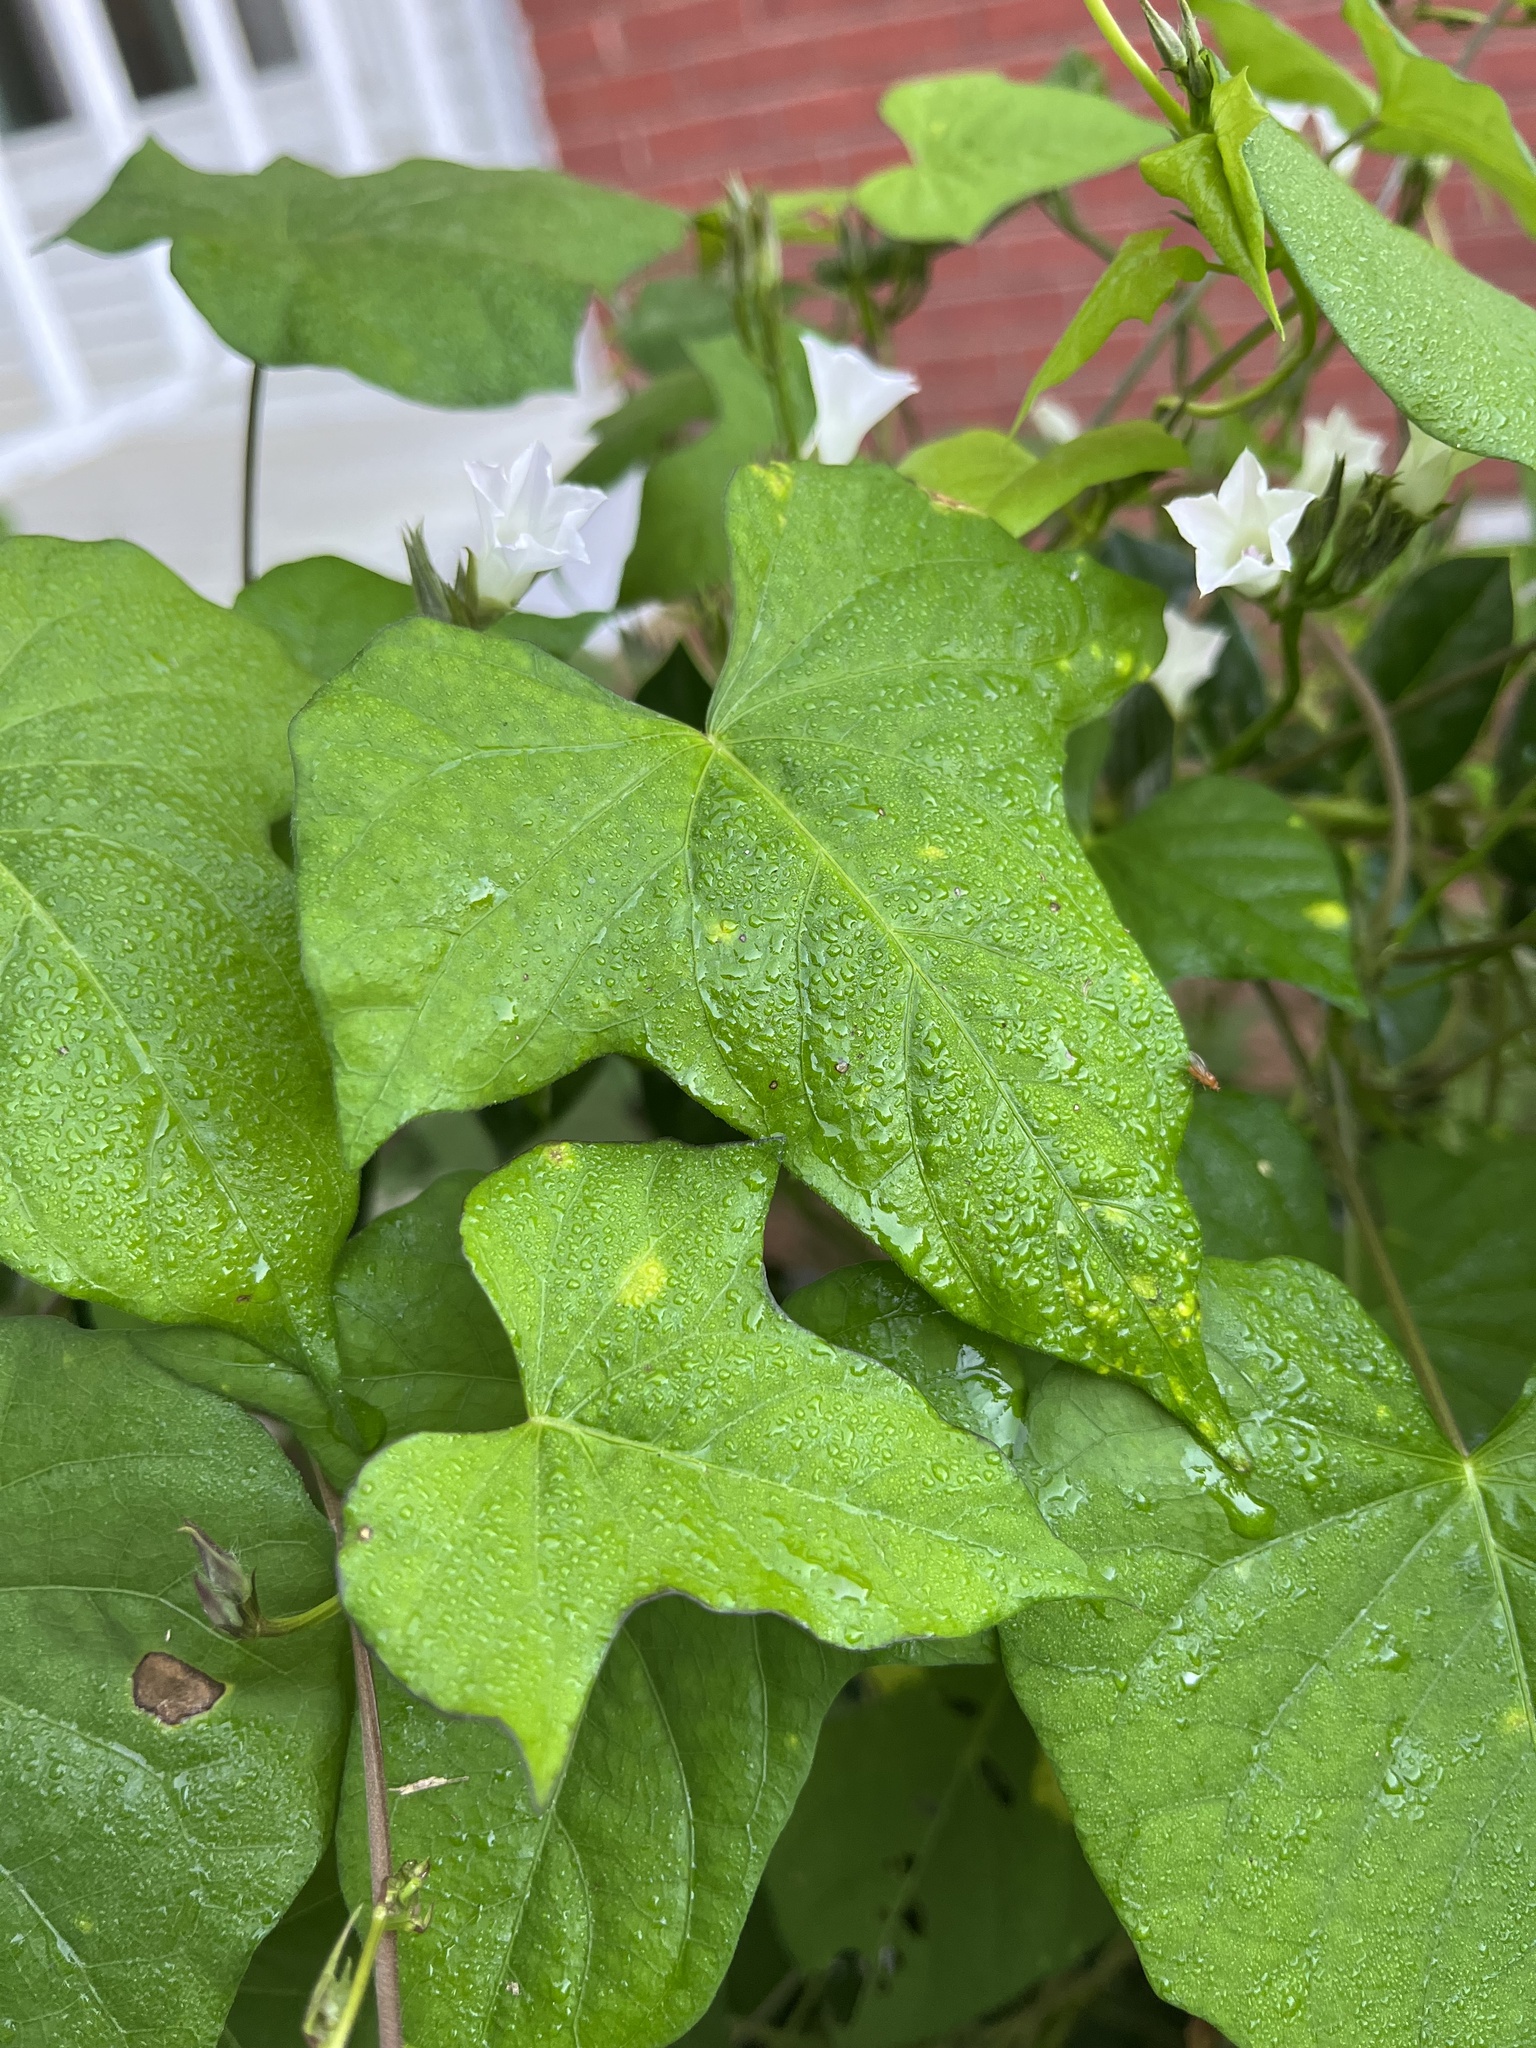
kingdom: Plantae
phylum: Tracheophyta
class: Magnoliopsida
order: Solanales
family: Convolvulaceae
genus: Ipomoea
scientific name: Ipomoea lacunosa
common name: White morning-glory
